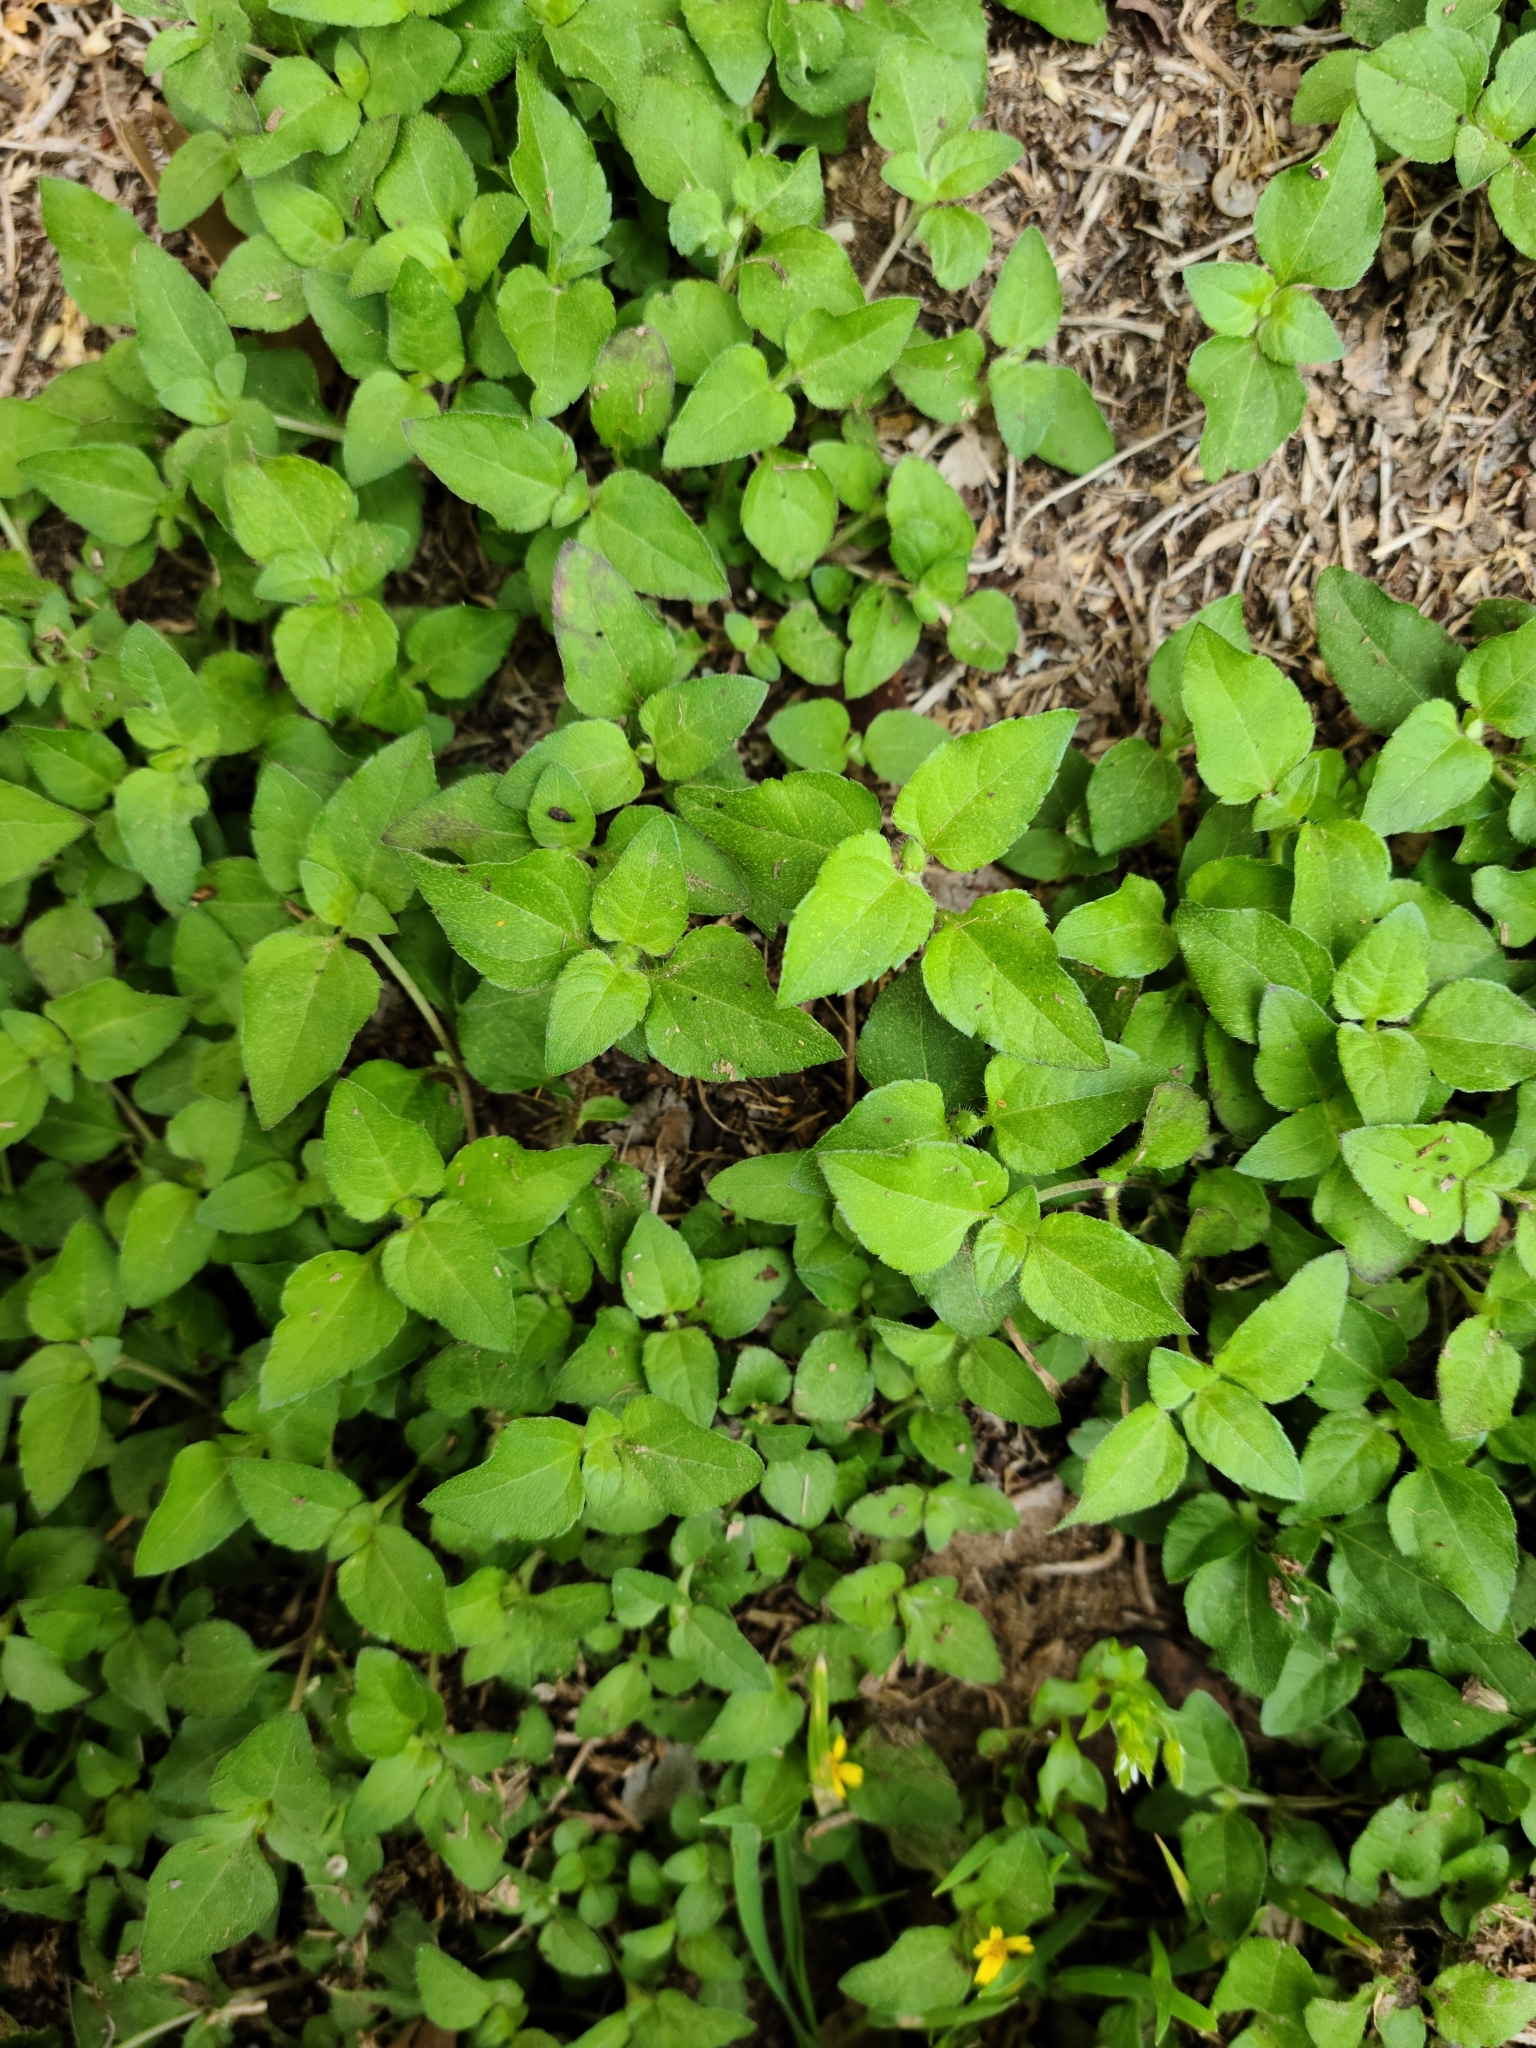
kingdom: Plantae
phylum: Tracheophyta
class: Magnoliopsida
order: Asterales
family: Asteraceae
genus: Calyptocarpus
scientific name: Calyptocarpus vialis
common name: Straggler daisy
